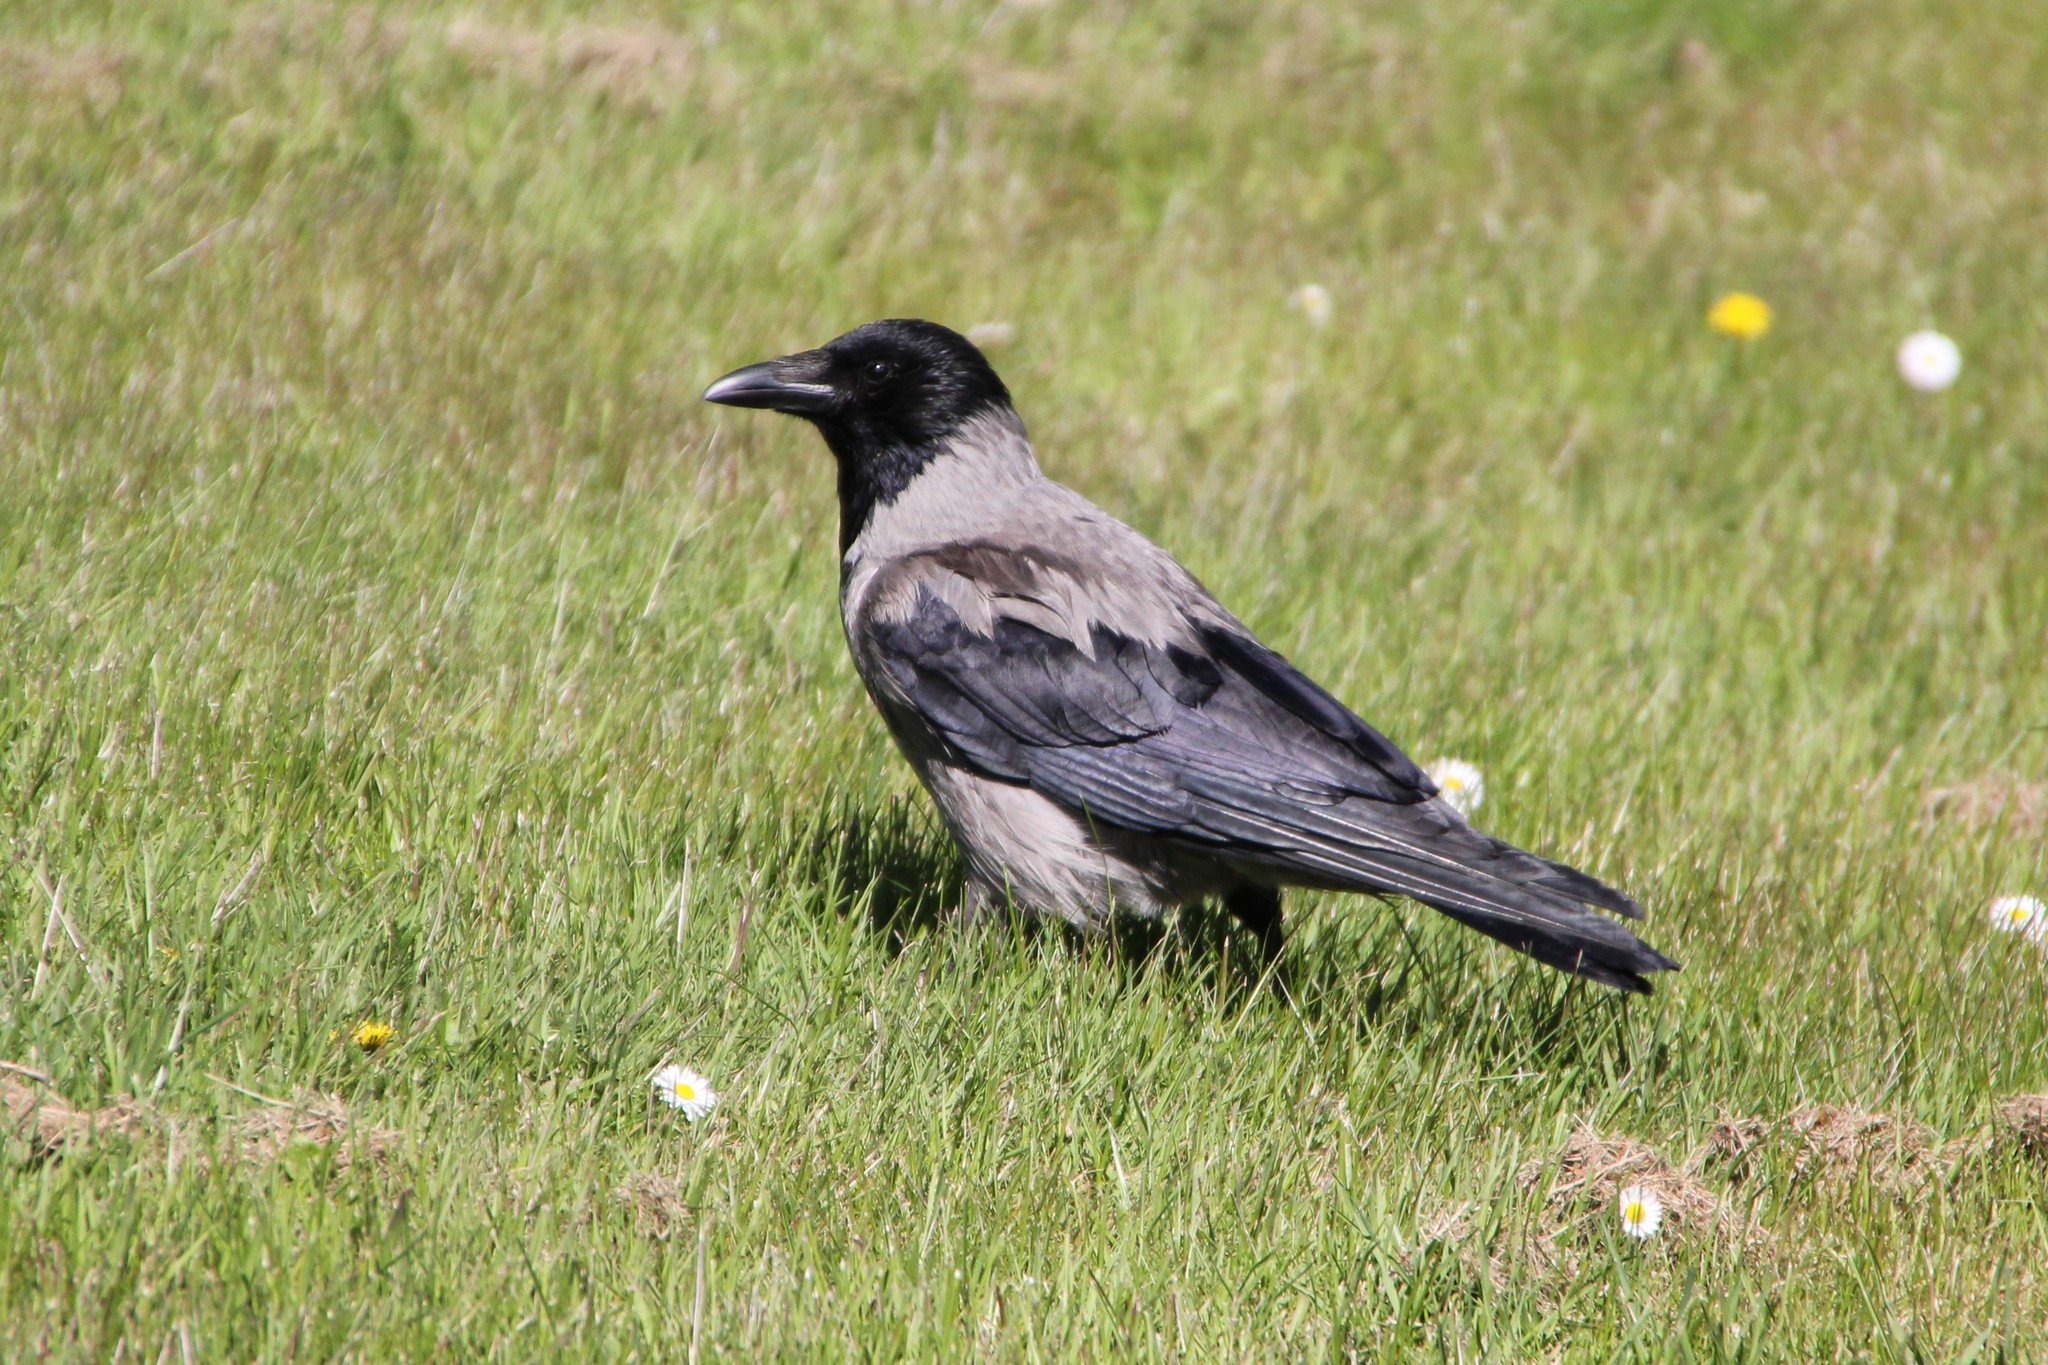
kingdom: Animalia
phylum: Chordata
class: Aves
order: Passeriformes
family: Corvidae
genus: Corvus
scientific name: Corvus cornix
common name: Hooded crow
